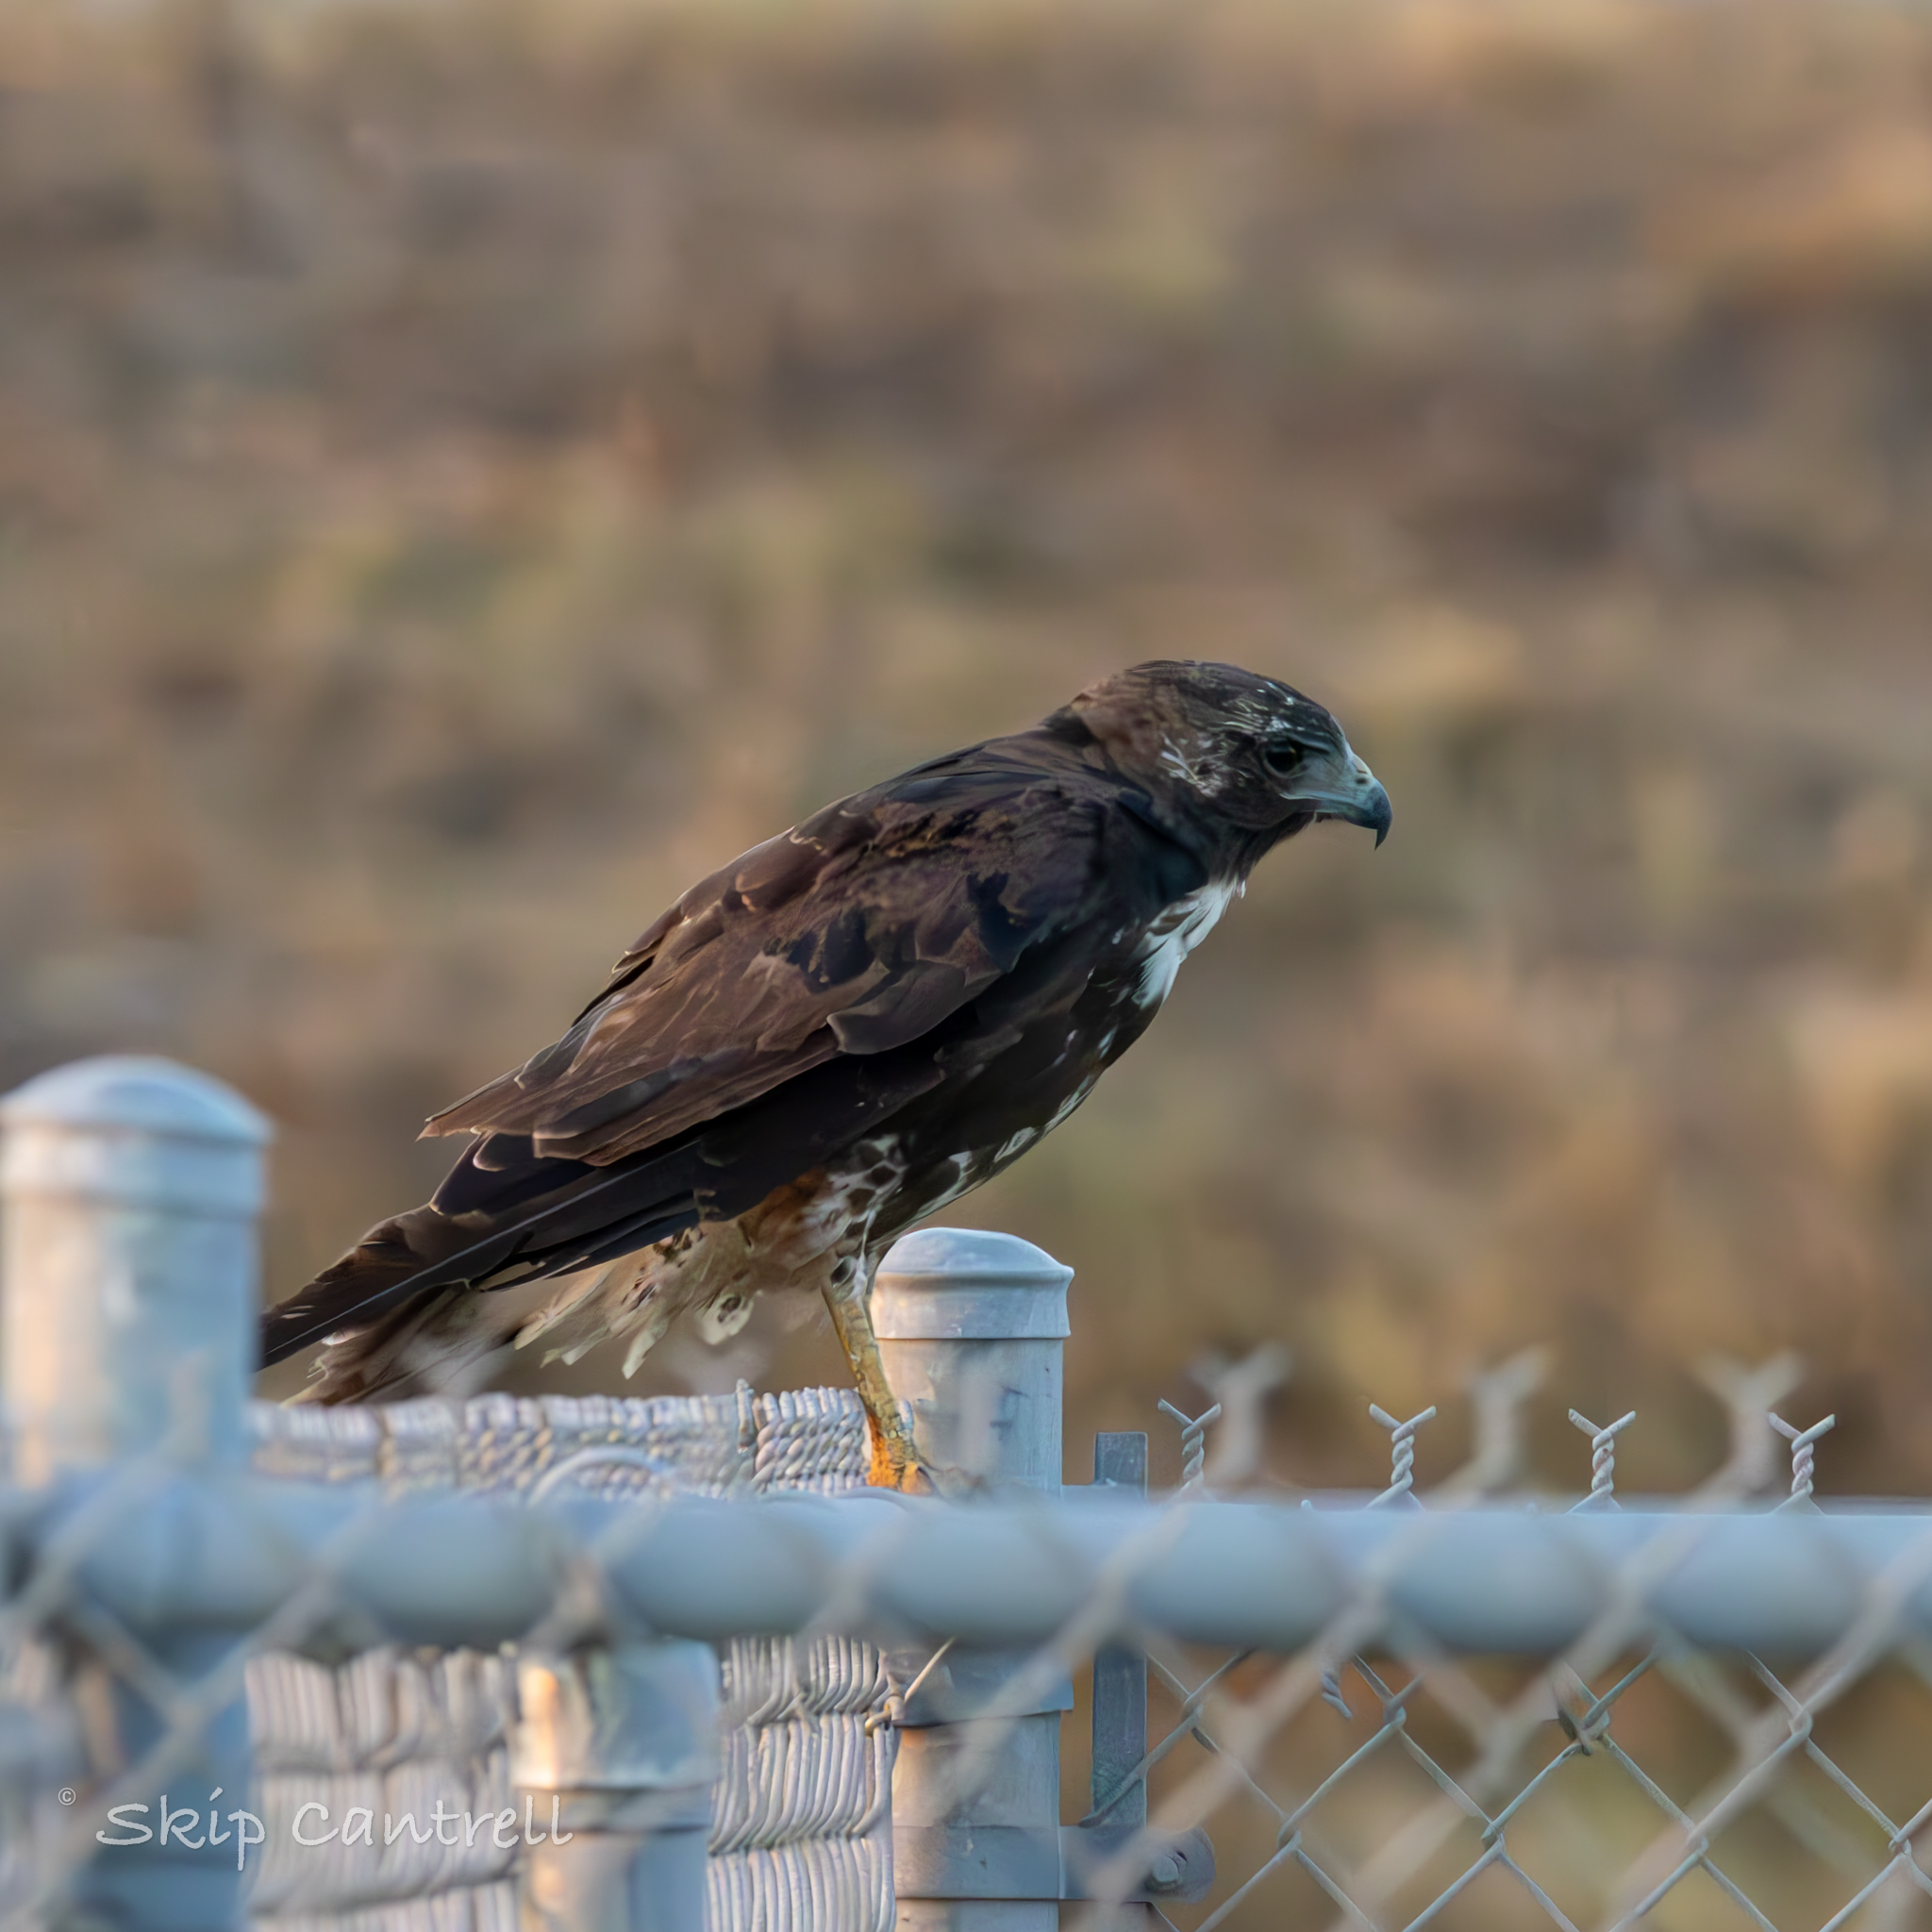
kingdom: Animalia
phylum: Chordata
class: Aves
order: Accipitriformes
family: Accipitridae
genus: Buteo
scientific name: Buteo albicaudatus
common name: White-tailed hawk
